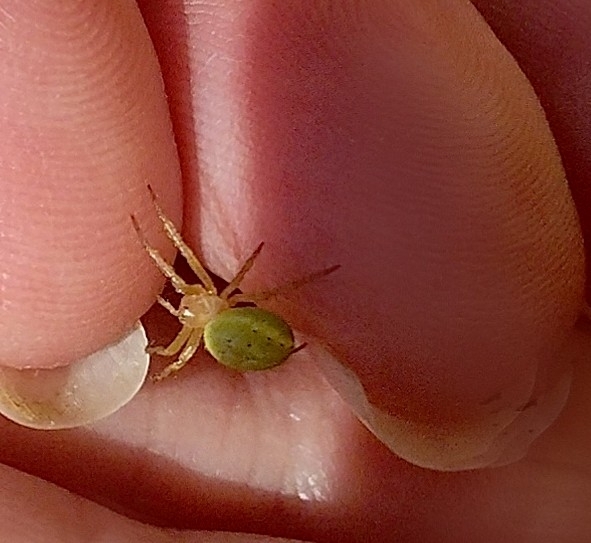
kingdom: Animalia
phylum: Arthropoda
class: Arachnida
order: Araneae
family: Araneidae
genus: Araniella
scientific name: Araniella
